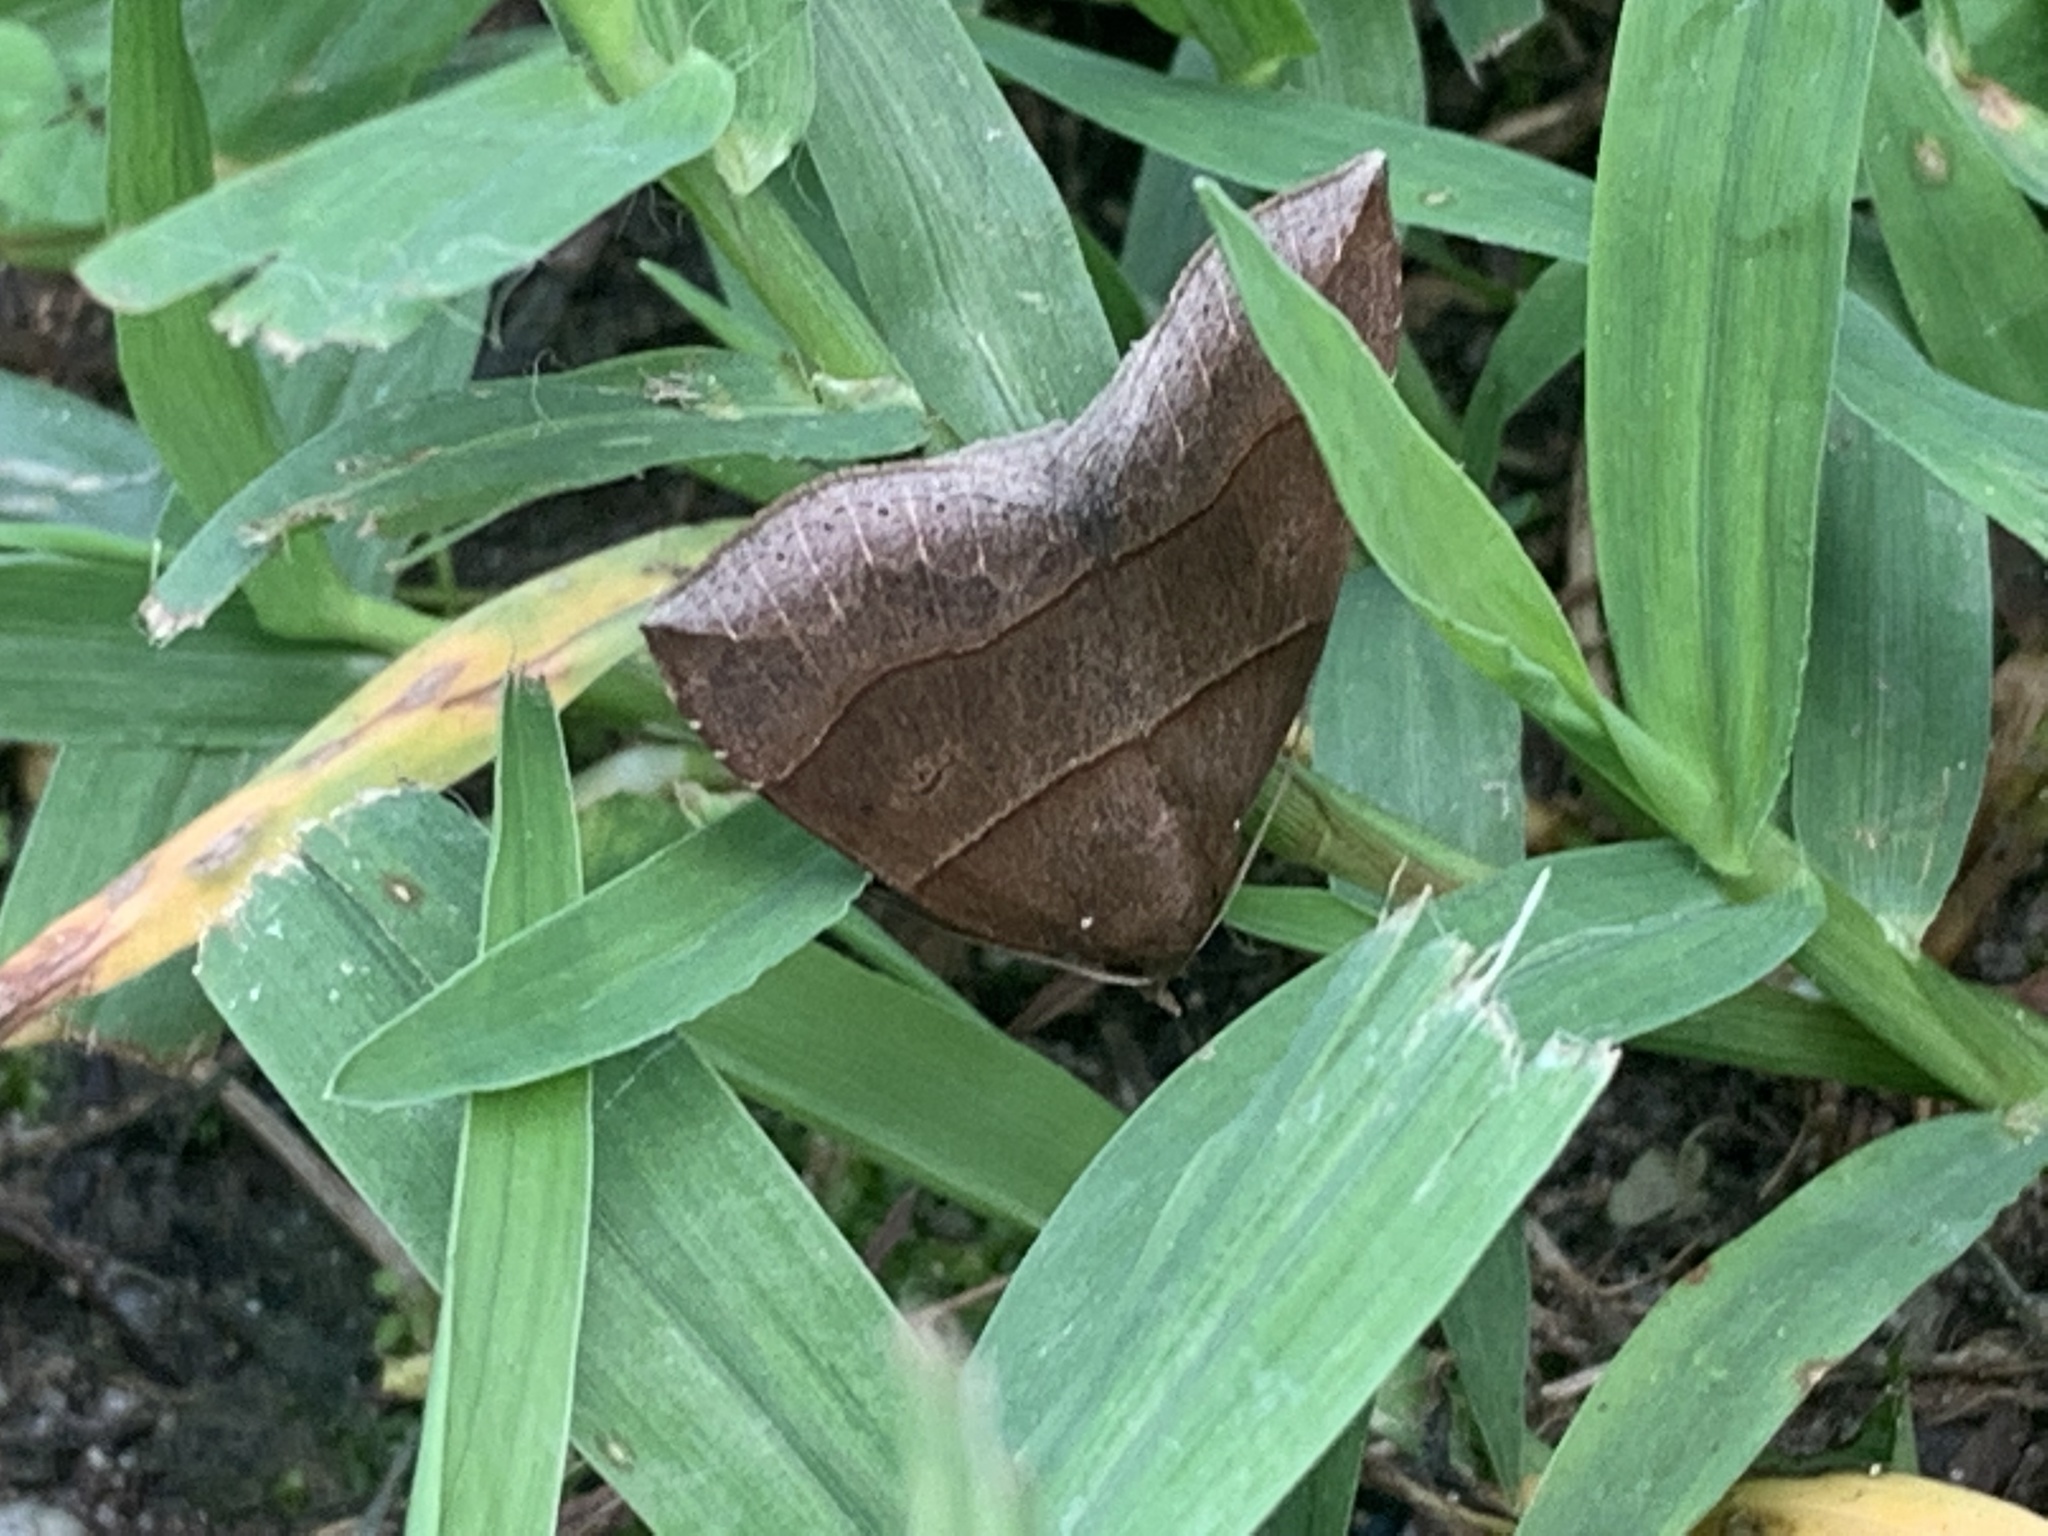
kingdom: Animalia
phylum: Arthropoda
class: Insecta
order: Lepidoptera
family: Erebidae
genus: Parallelia
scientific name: Parallelia bistriaris
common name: Maple looper moth
